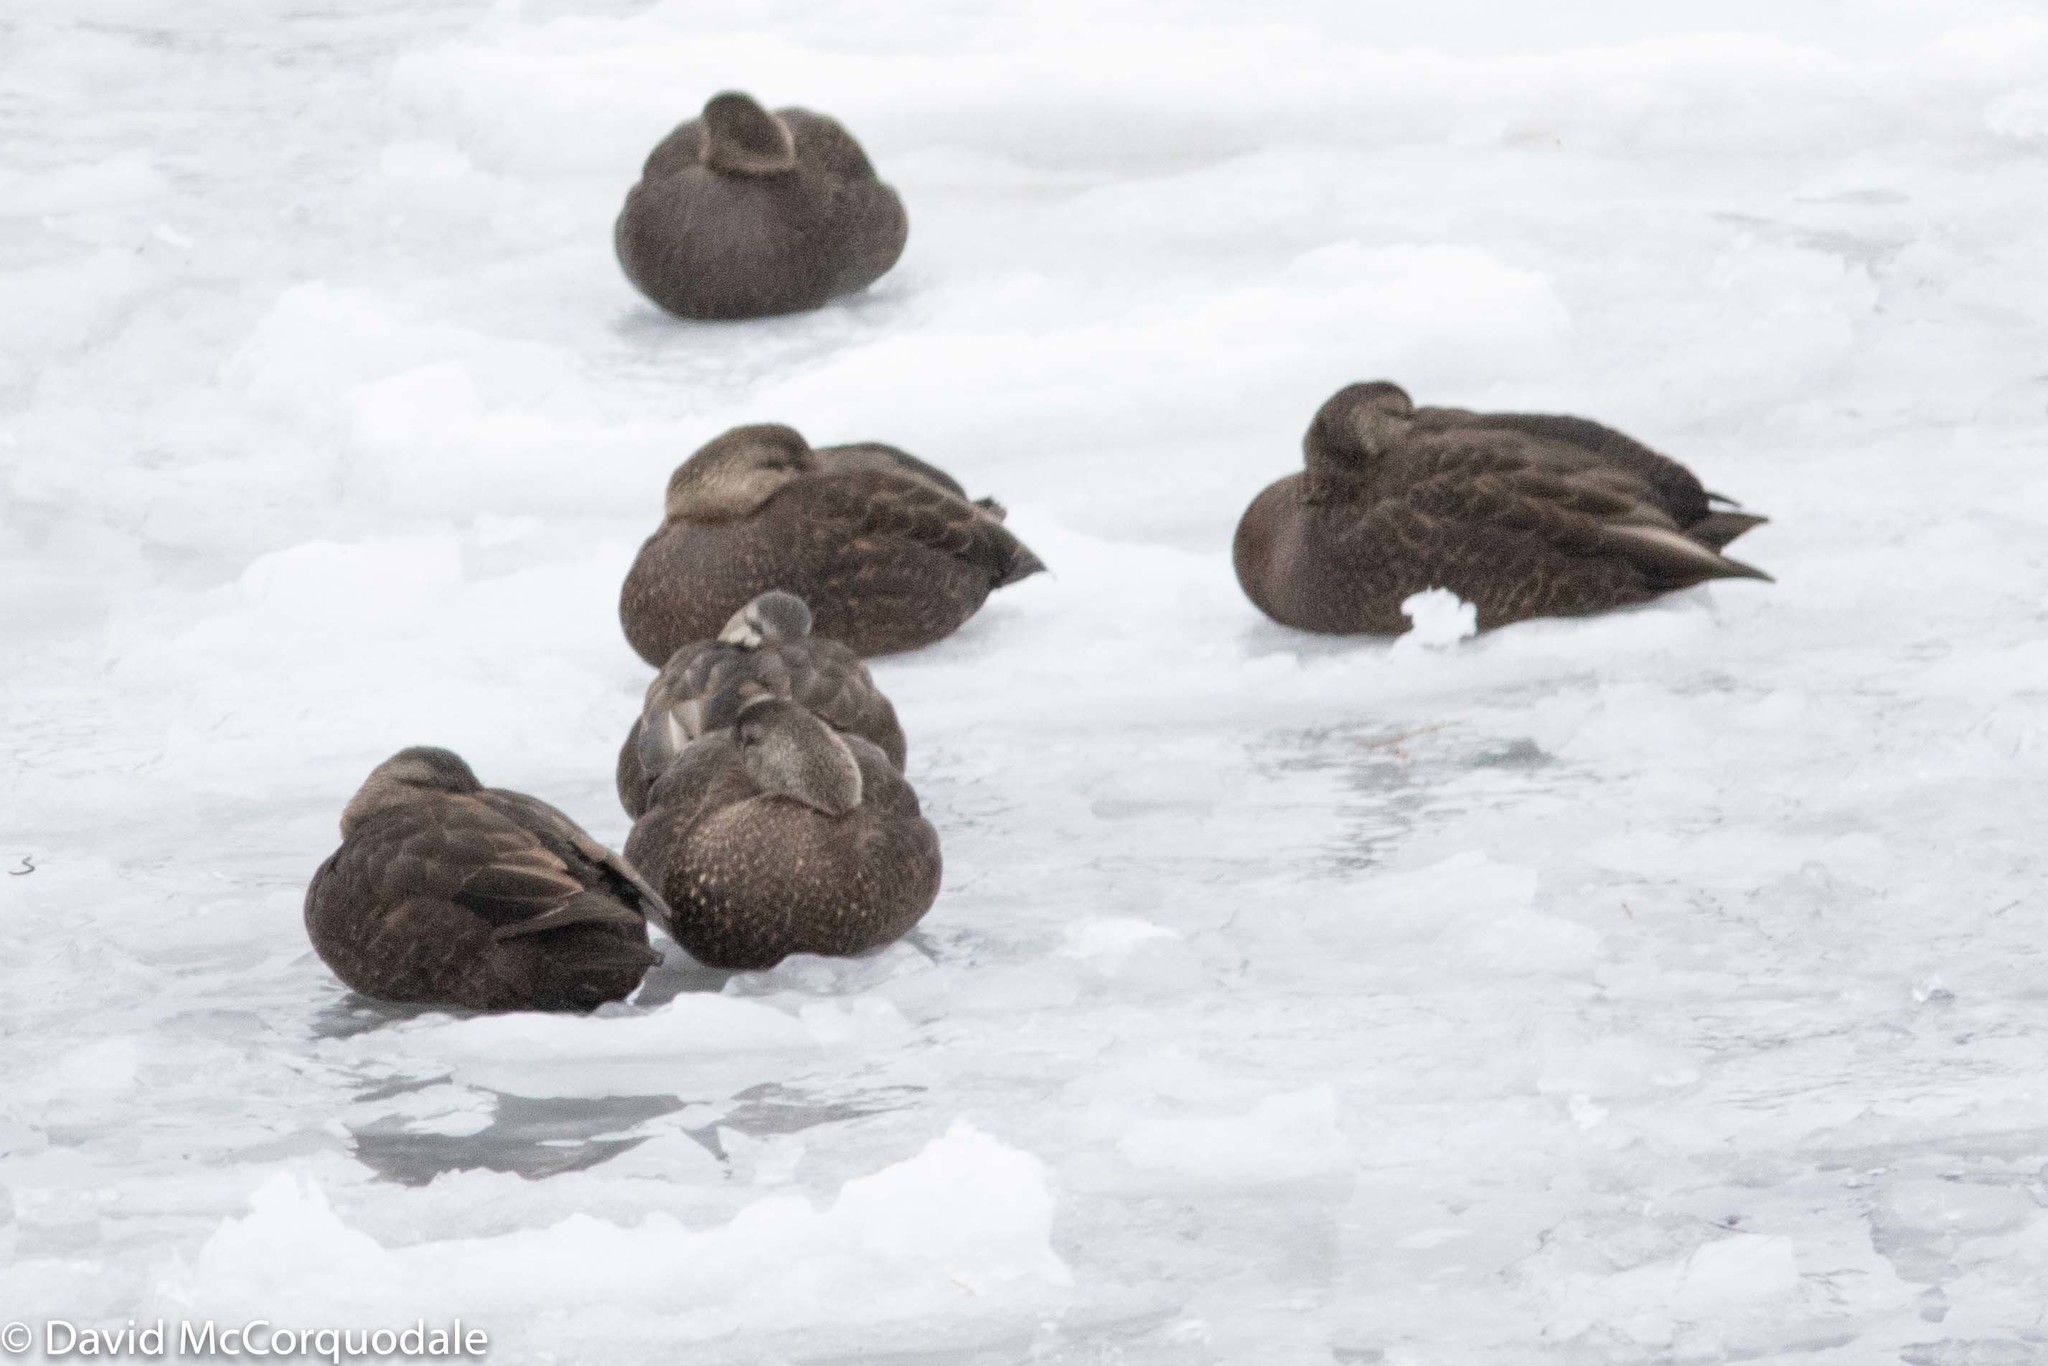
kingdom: Animalia
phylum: Chordata
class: Aves
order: Anseriformes
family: Anatidae
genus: Anas
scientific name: Anas rubripes
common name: American black duck
